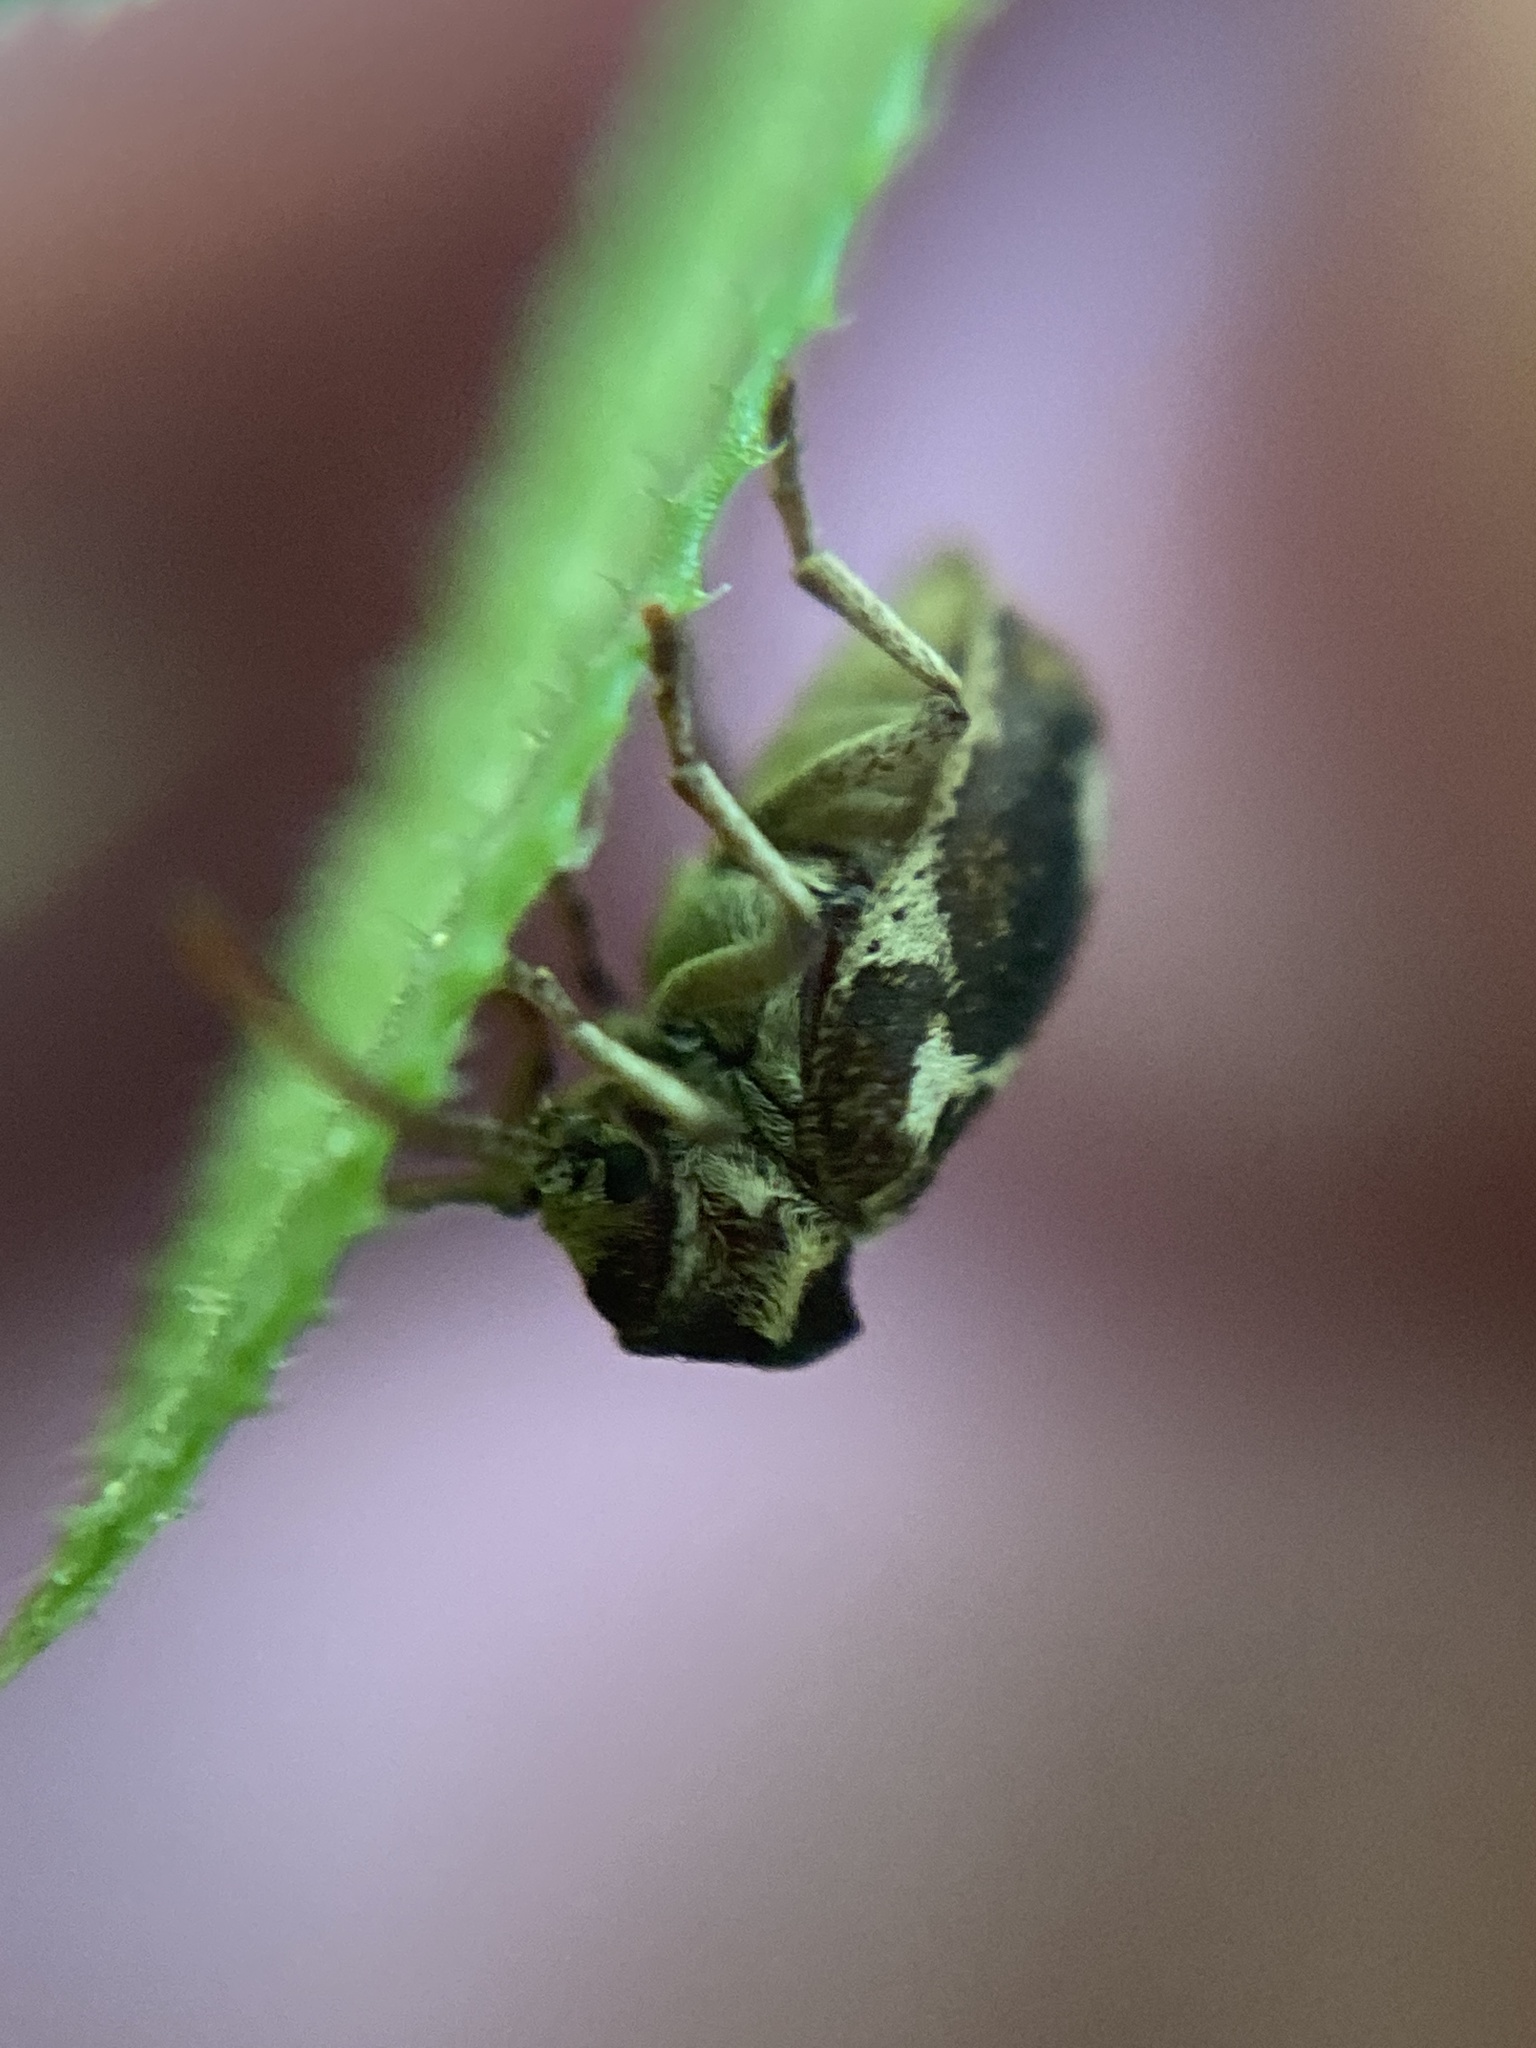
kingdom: Animalia
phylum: Arthropoda
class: Insecta
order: Coleoptera
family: Anobiidae
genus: Ptinomorphus
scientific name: Ptinomorphus imperialis
